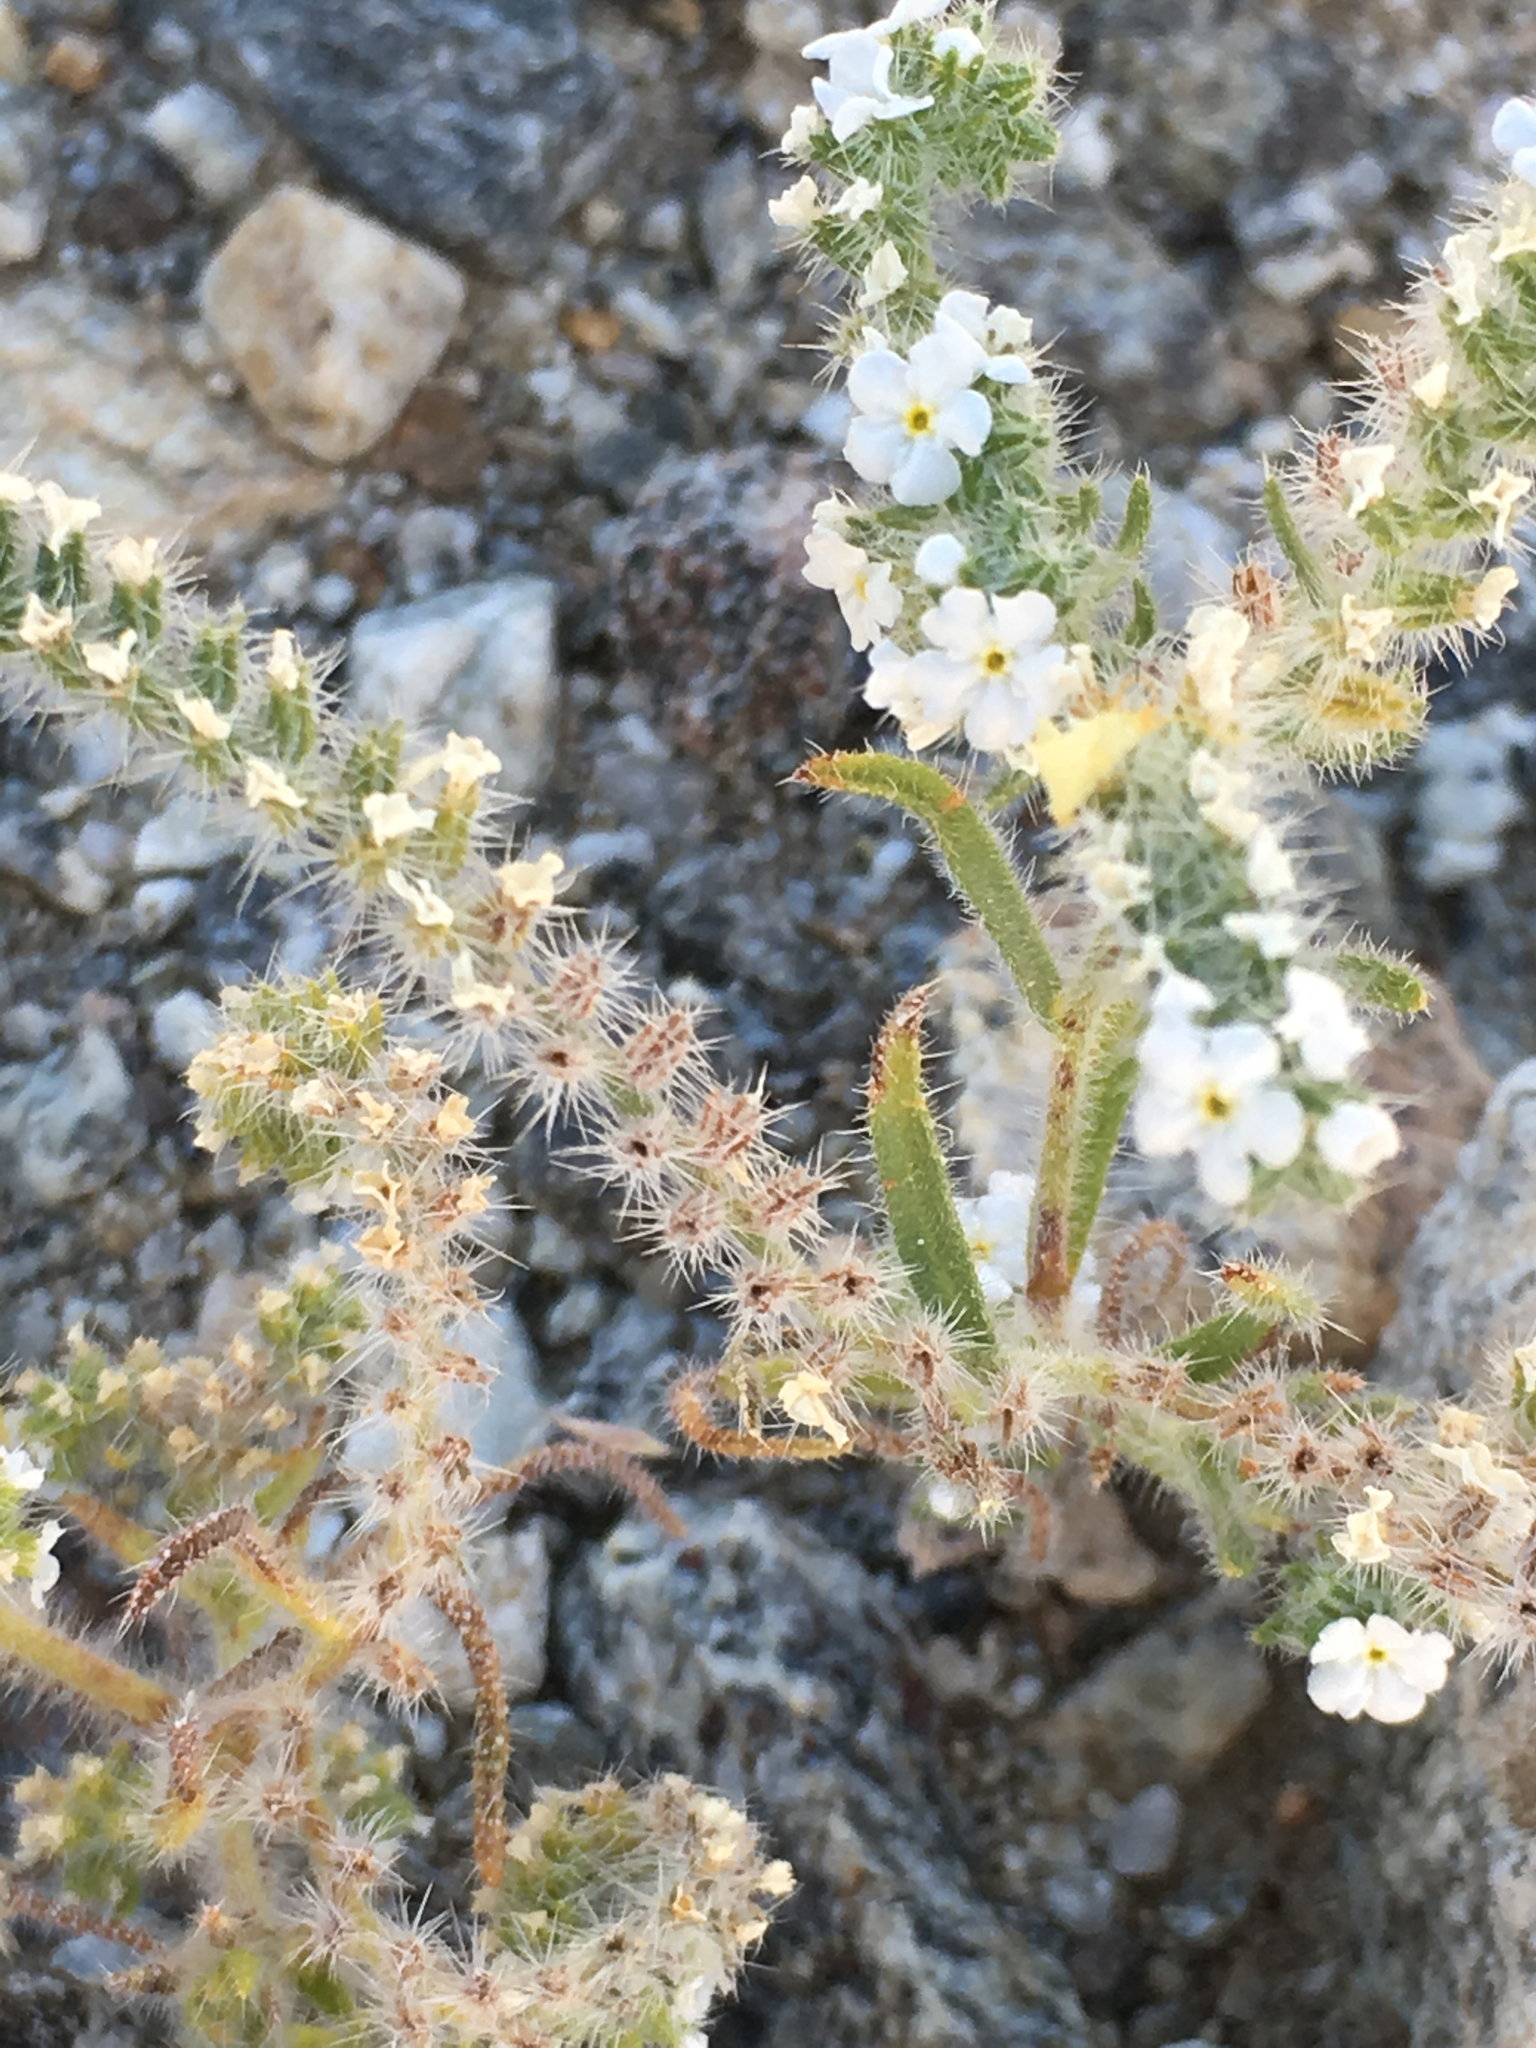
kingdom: Plantae
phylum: Tracheophyta
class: Magnoliopsida
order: Boraginales
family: Boraginaceae
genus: Johnstonella
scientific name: Johnstonella angustifolia
